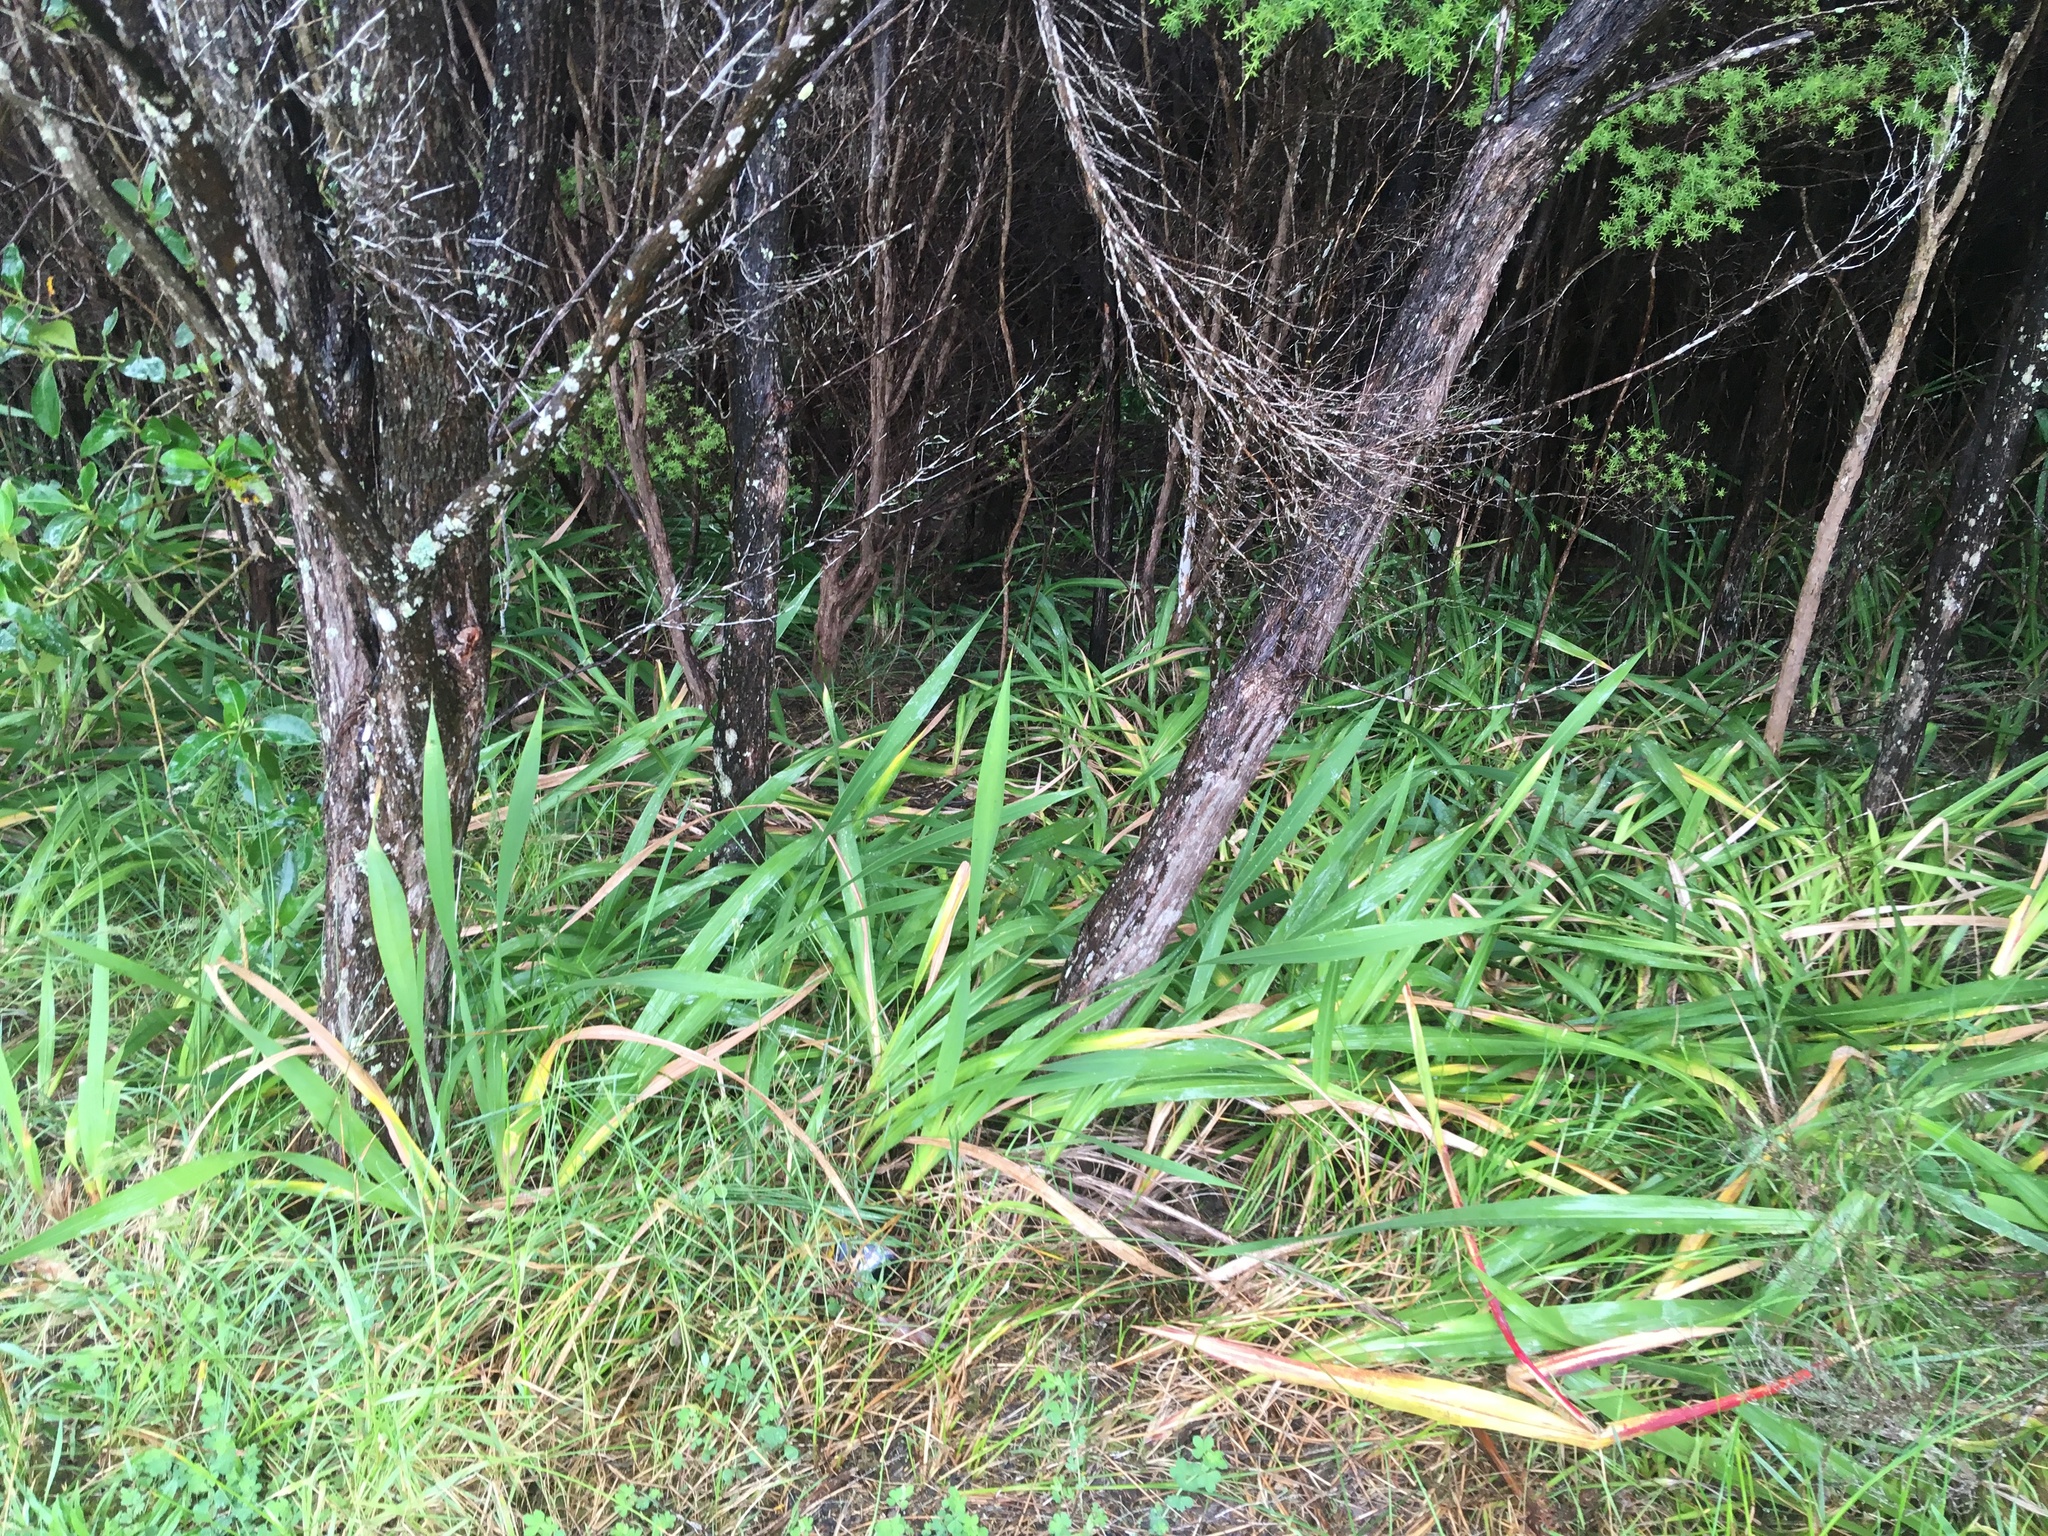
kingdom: Plantae
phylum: Tracheophyta
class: Magnoliopsida
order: Myrtales
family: Myrtaceae
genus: Leptospermum
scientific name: Leptospermum scoparium
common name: Broom tea-tree
